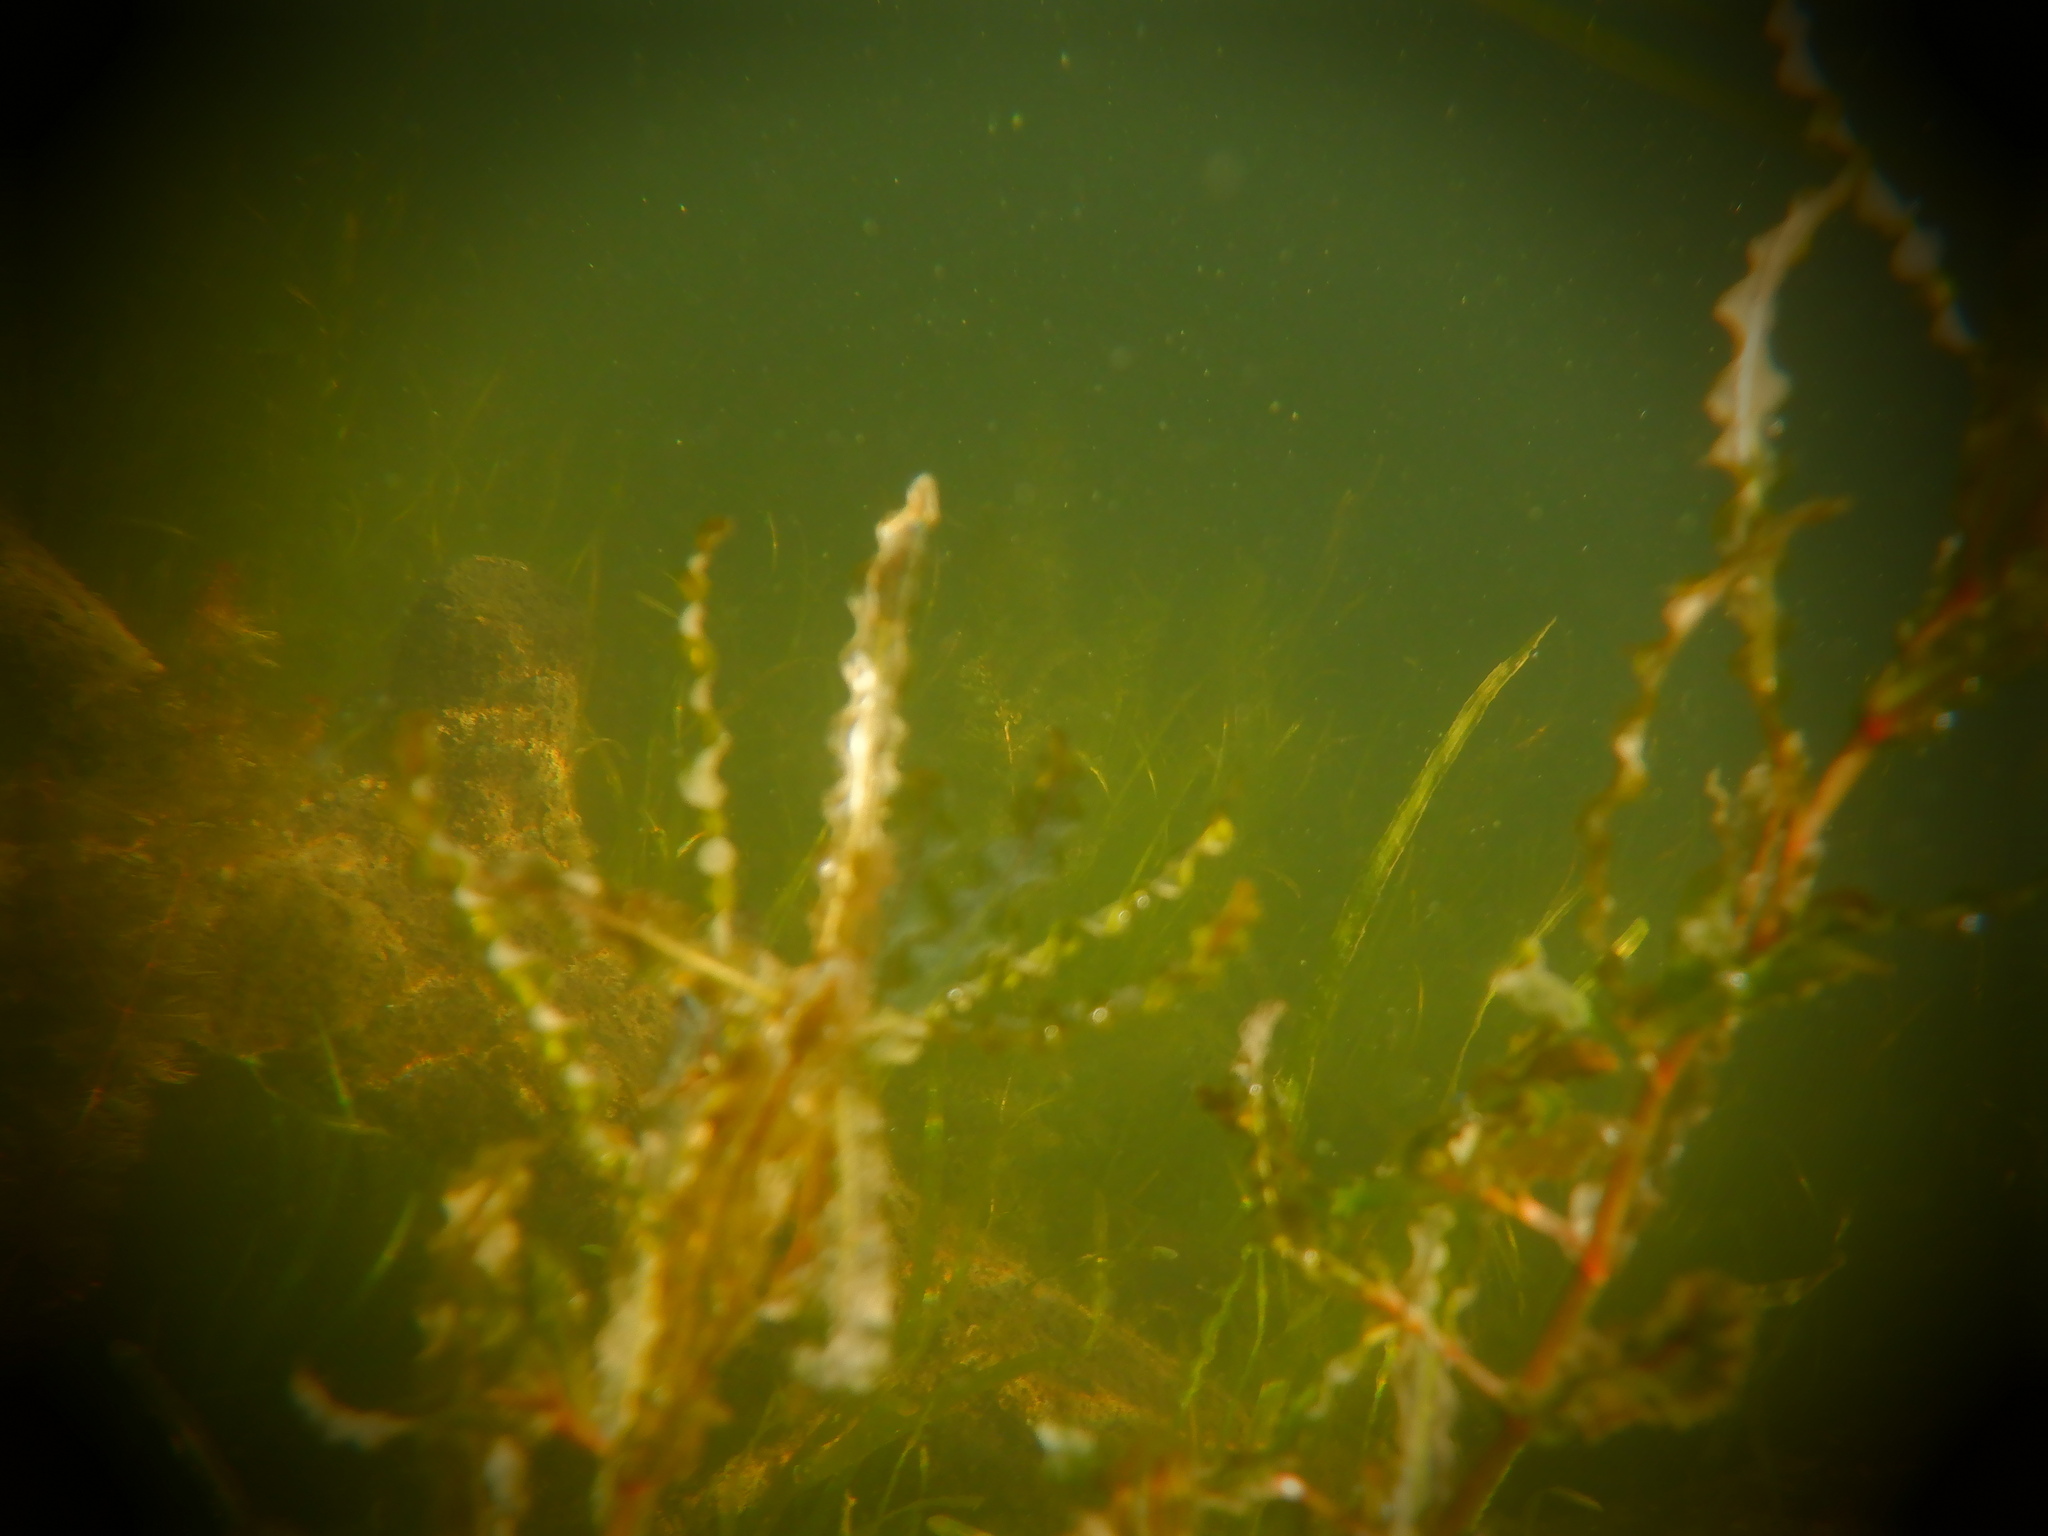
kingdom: Plantae
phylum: Tracheophyta
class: Liliopsida
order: Alismatales
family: Potamogetonaceae
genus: Potamogeton
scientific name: Potamogeton crispus
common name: Curled pondweed
